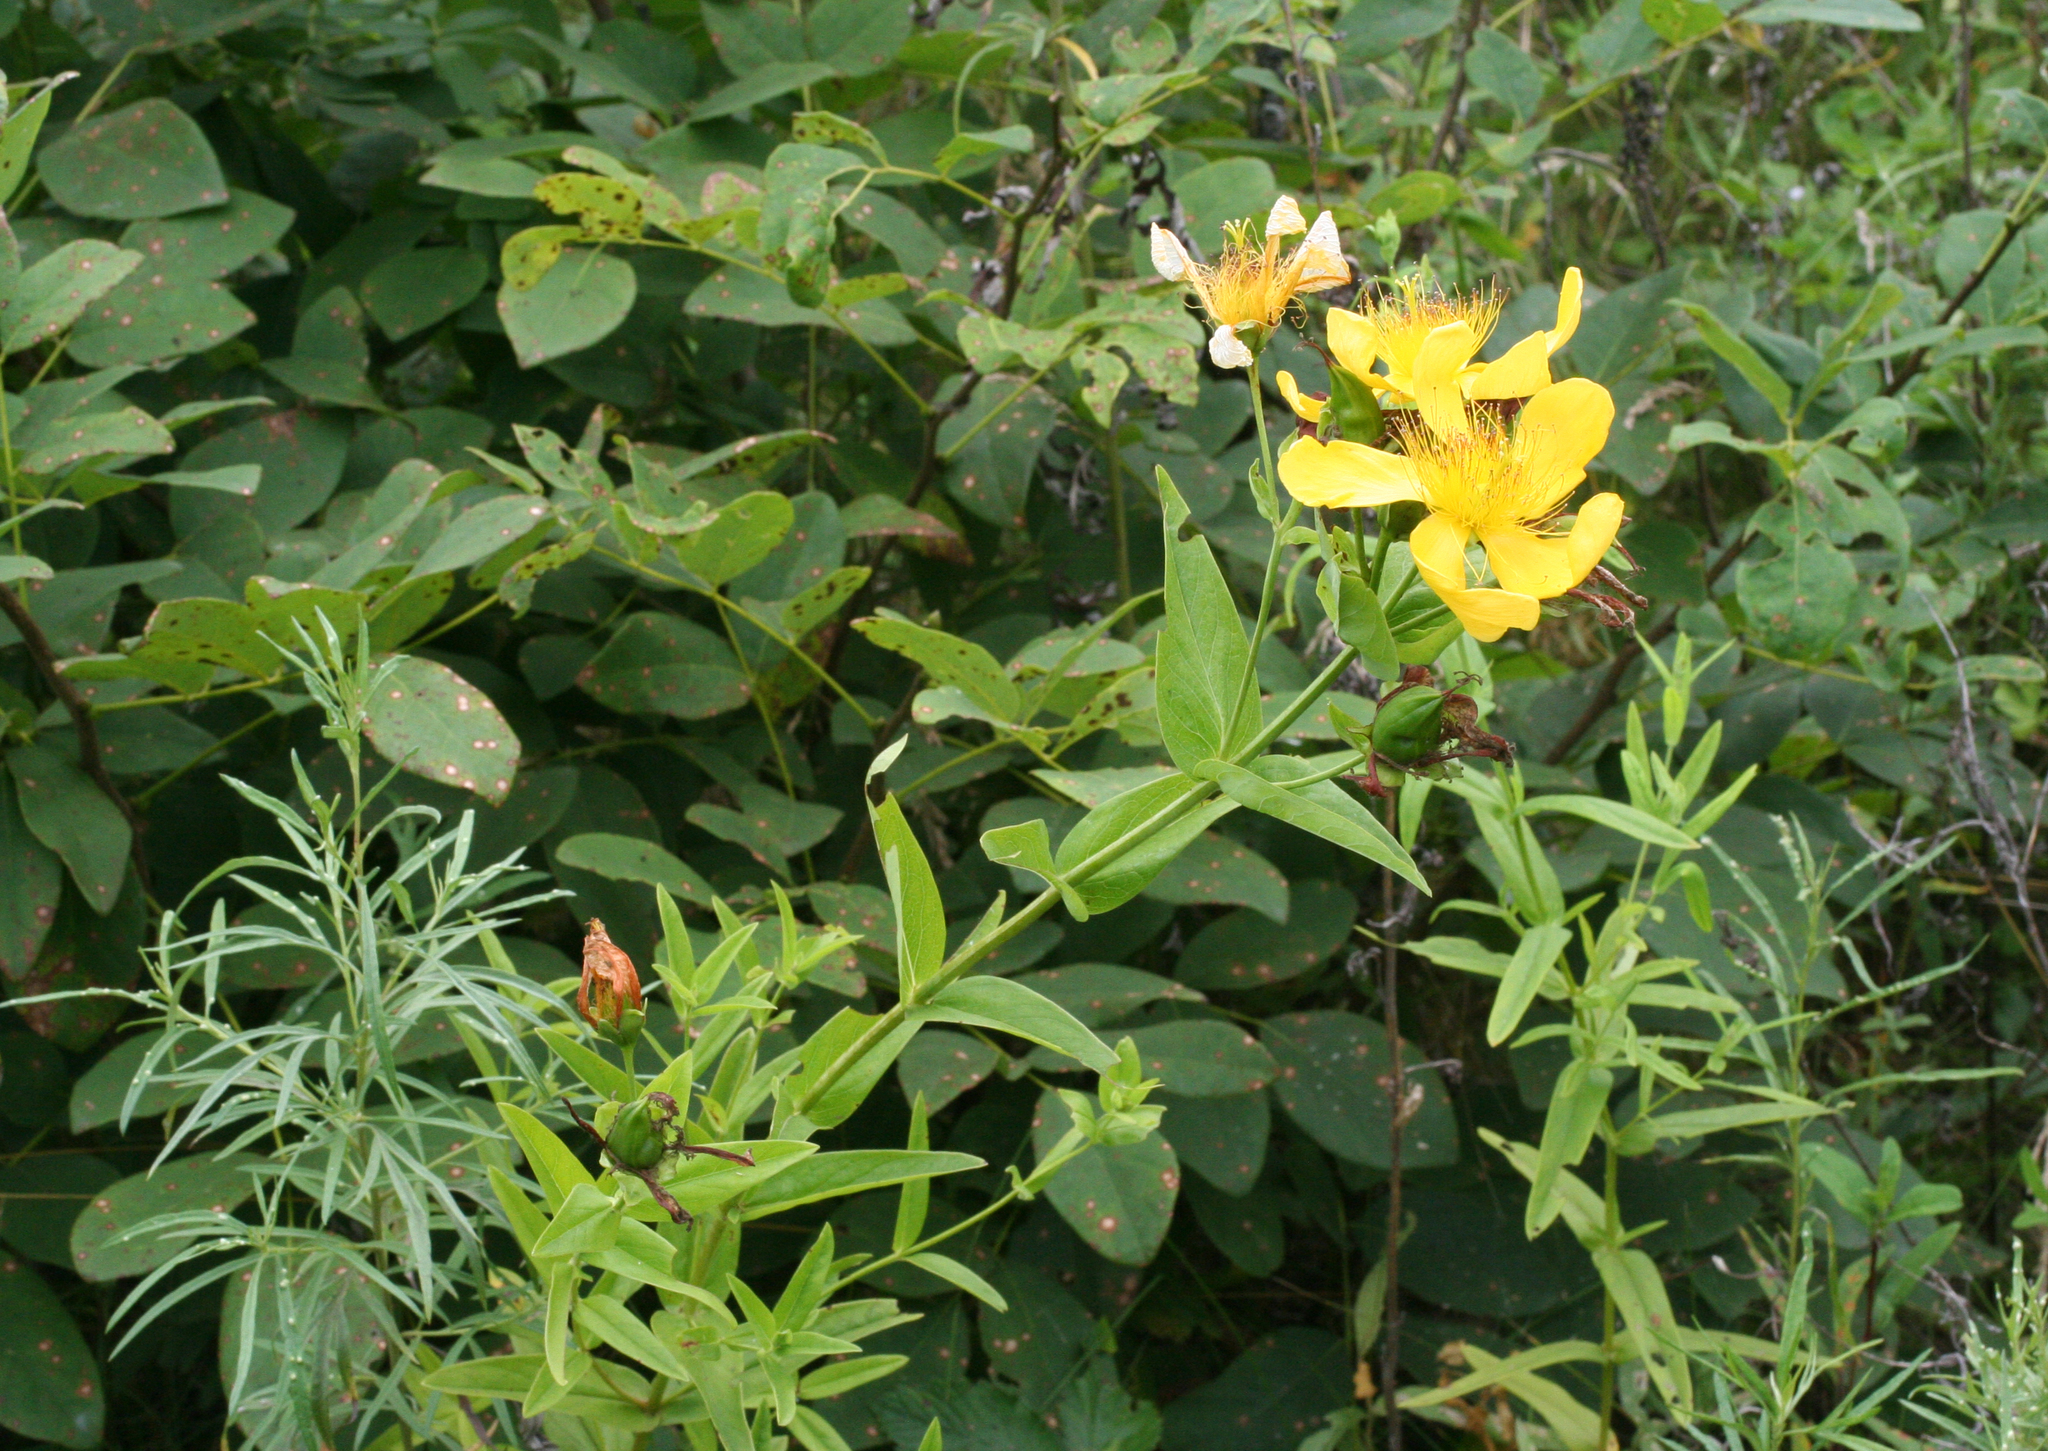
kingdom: Plantae
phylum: Tracheophyta
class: Magnoliopsida
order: Malpighiales
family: Hypericaceae
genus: Hypericum
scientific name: Hypericum ascyron
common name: Giant st. john's-wort
